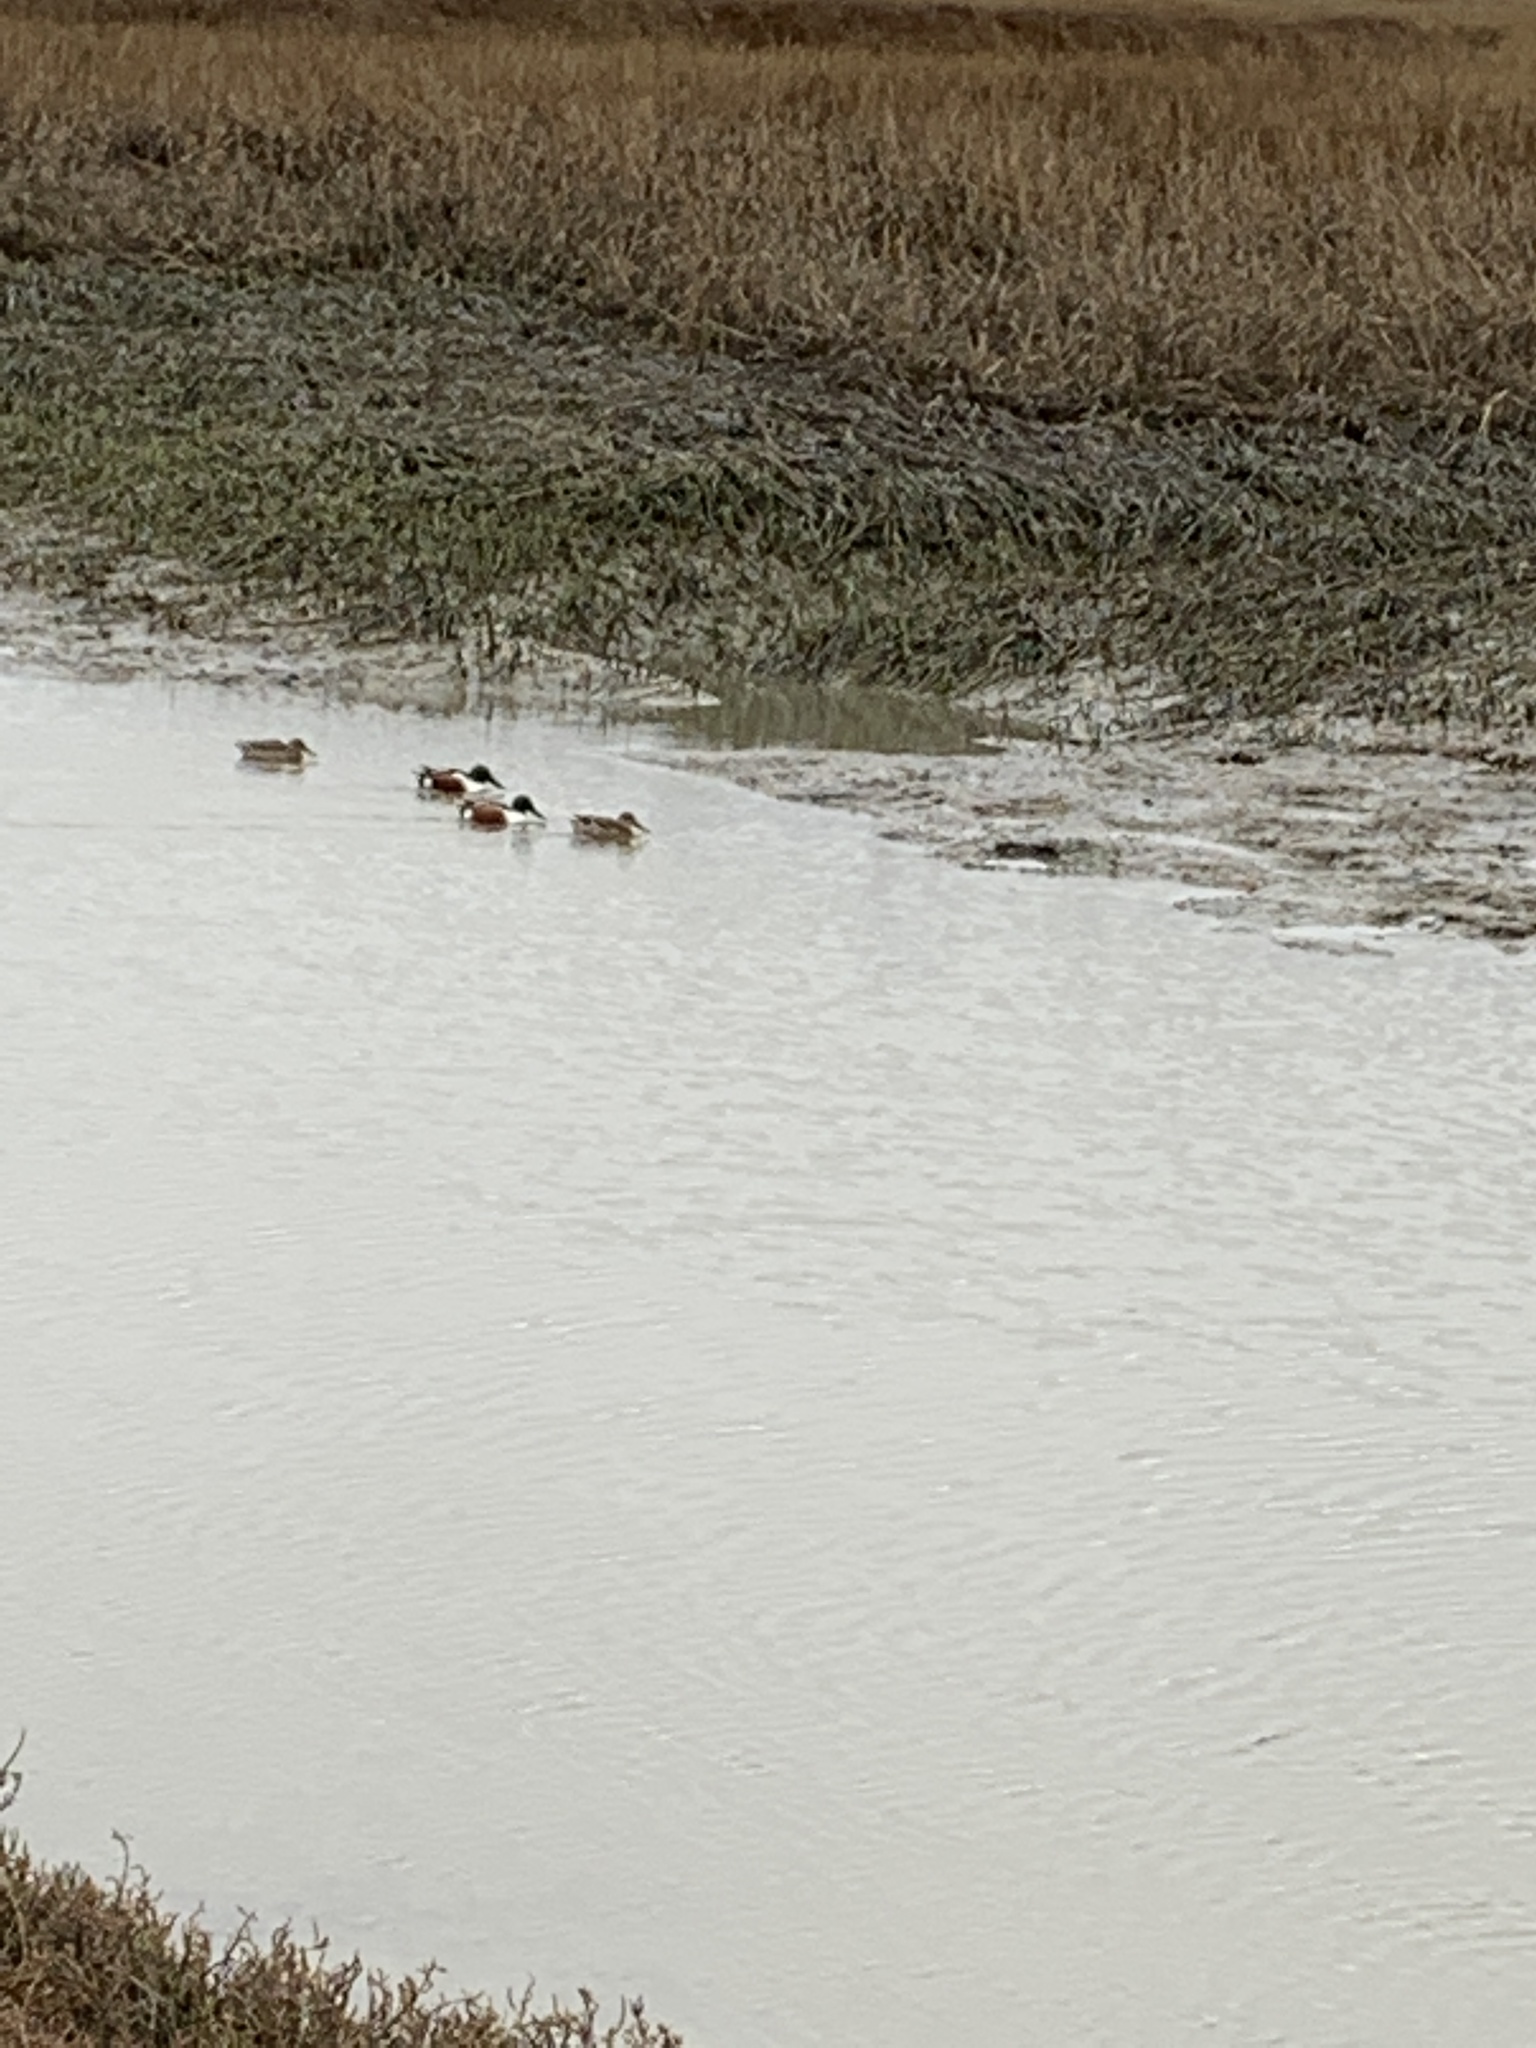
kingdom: Animalia
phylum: Chordata
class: Aves
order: Anseriformes
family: Anatidae
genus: Spatula
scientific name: Spatula clypeata
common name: Northern shoveler
